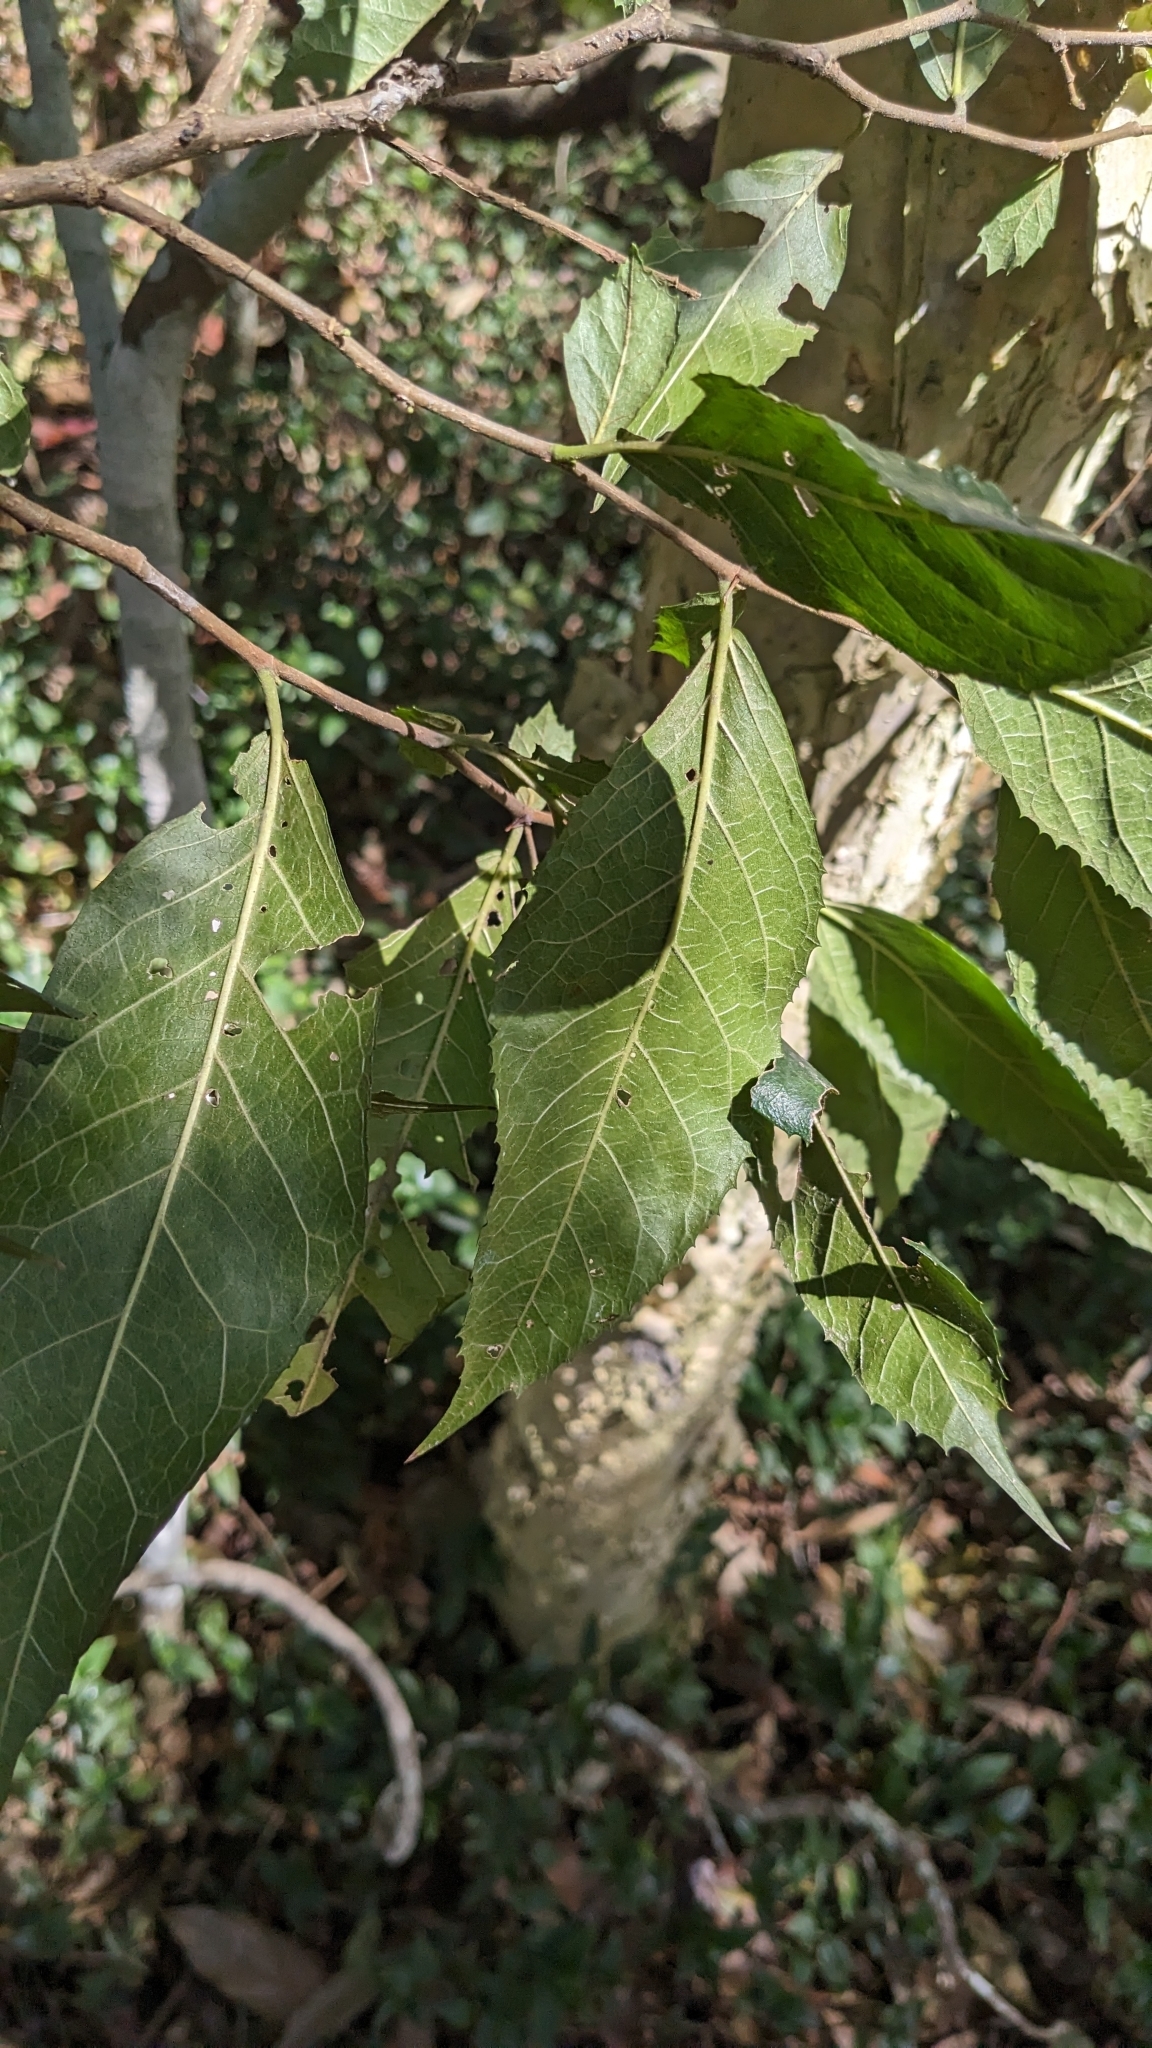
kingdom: Plantae
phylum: Tracheophyta
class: Magnoliopsida
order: Rosales
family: Moraceae
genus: Paratrophis
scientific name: Paratrophis pendulina
